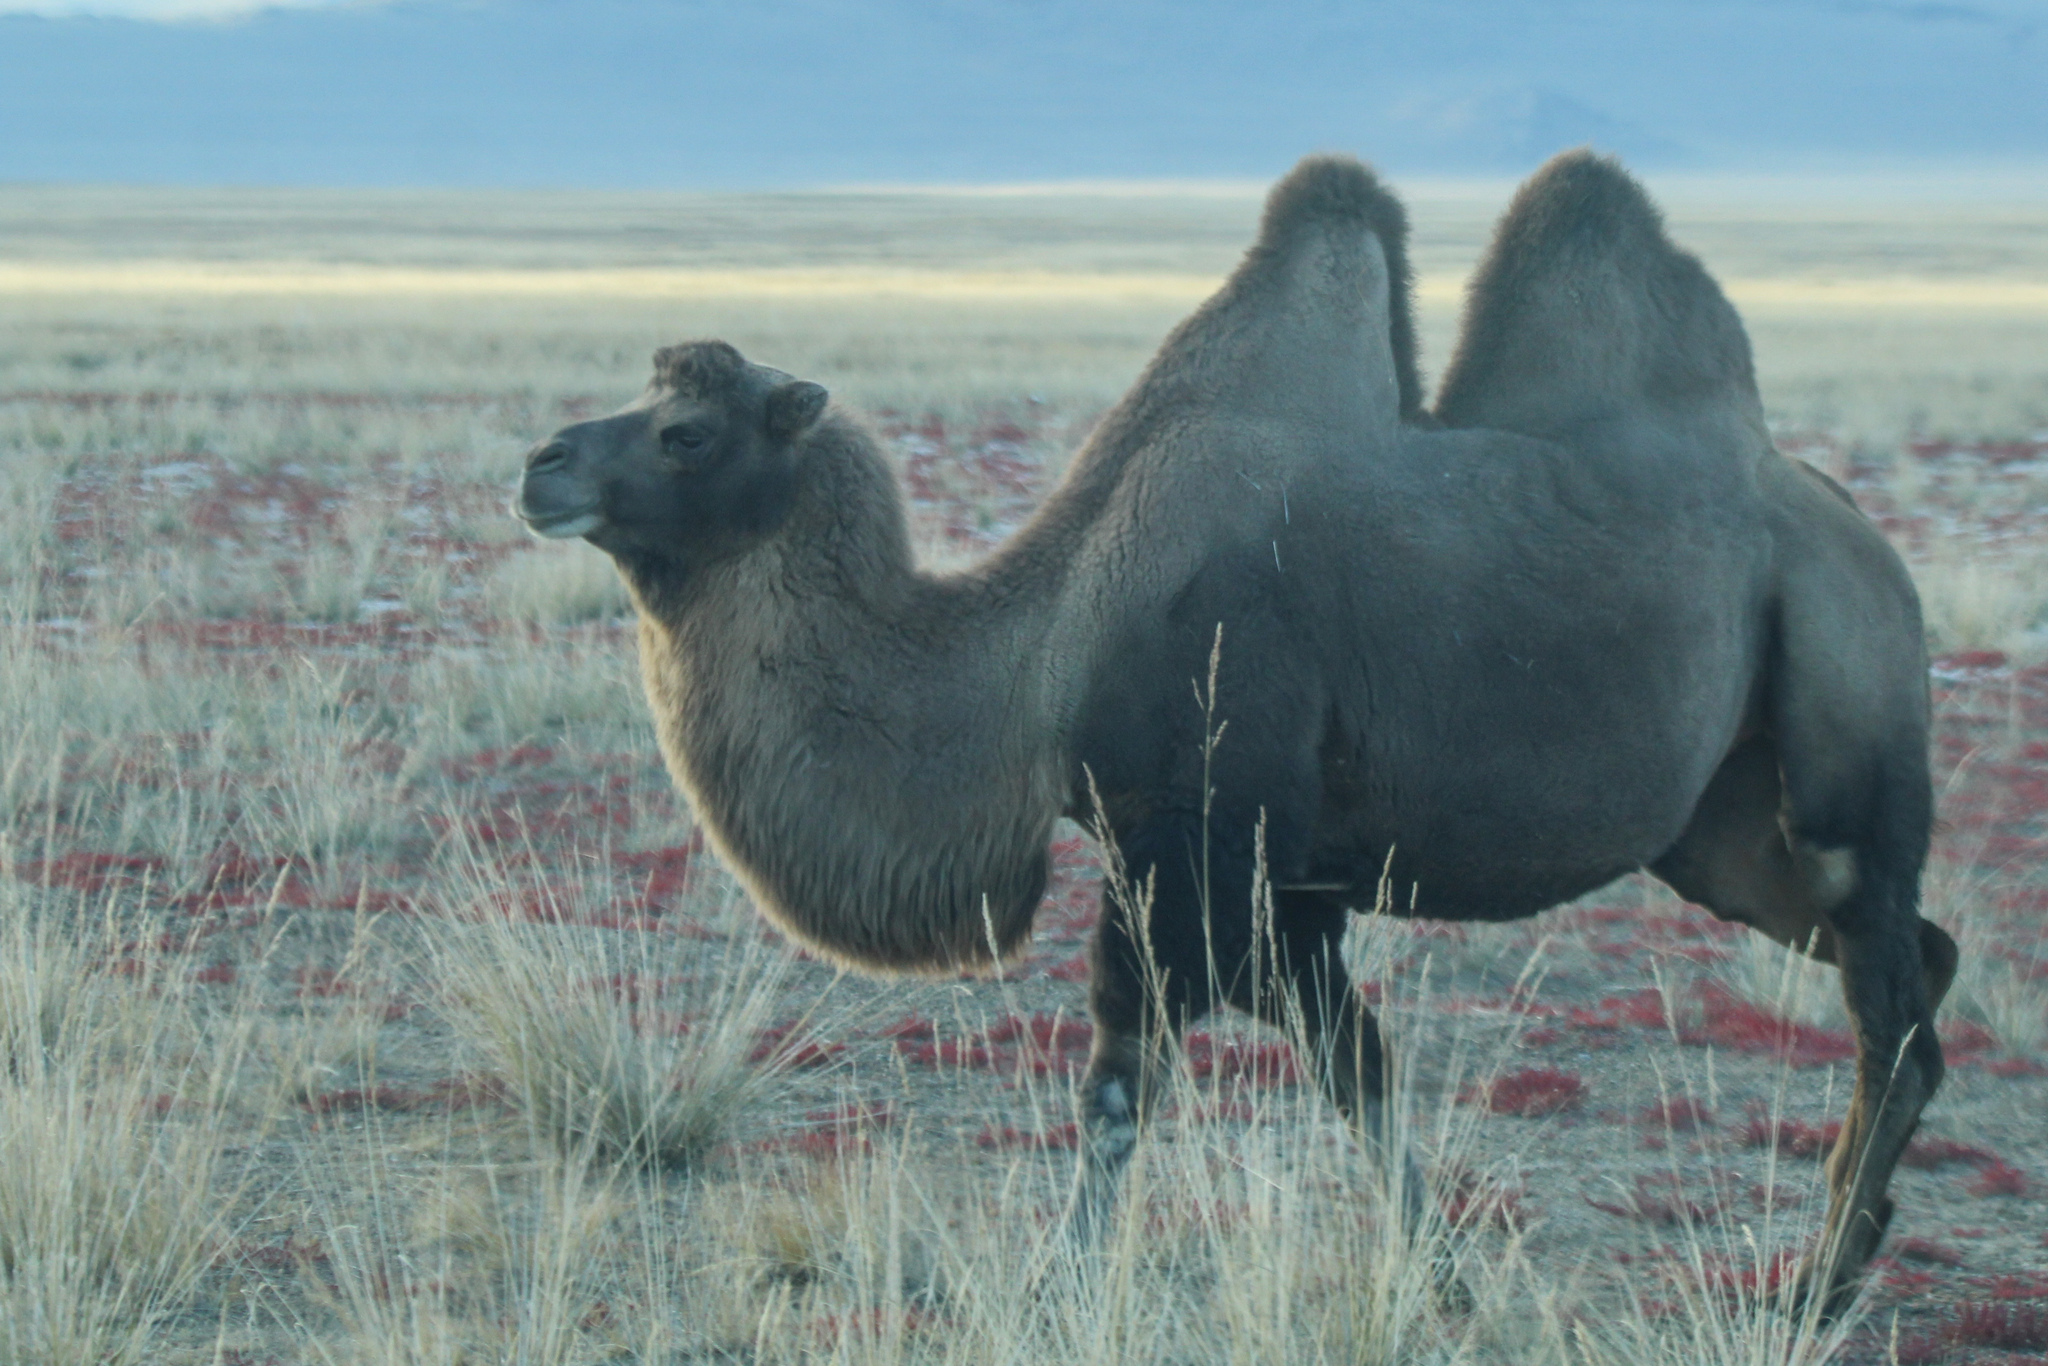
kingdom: Animalia
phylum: Chordata
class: Mammalia
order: Artiodactyla
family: Camelidae
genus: Camelus
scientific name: Camelus bactrianus
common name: Bactrian camel
